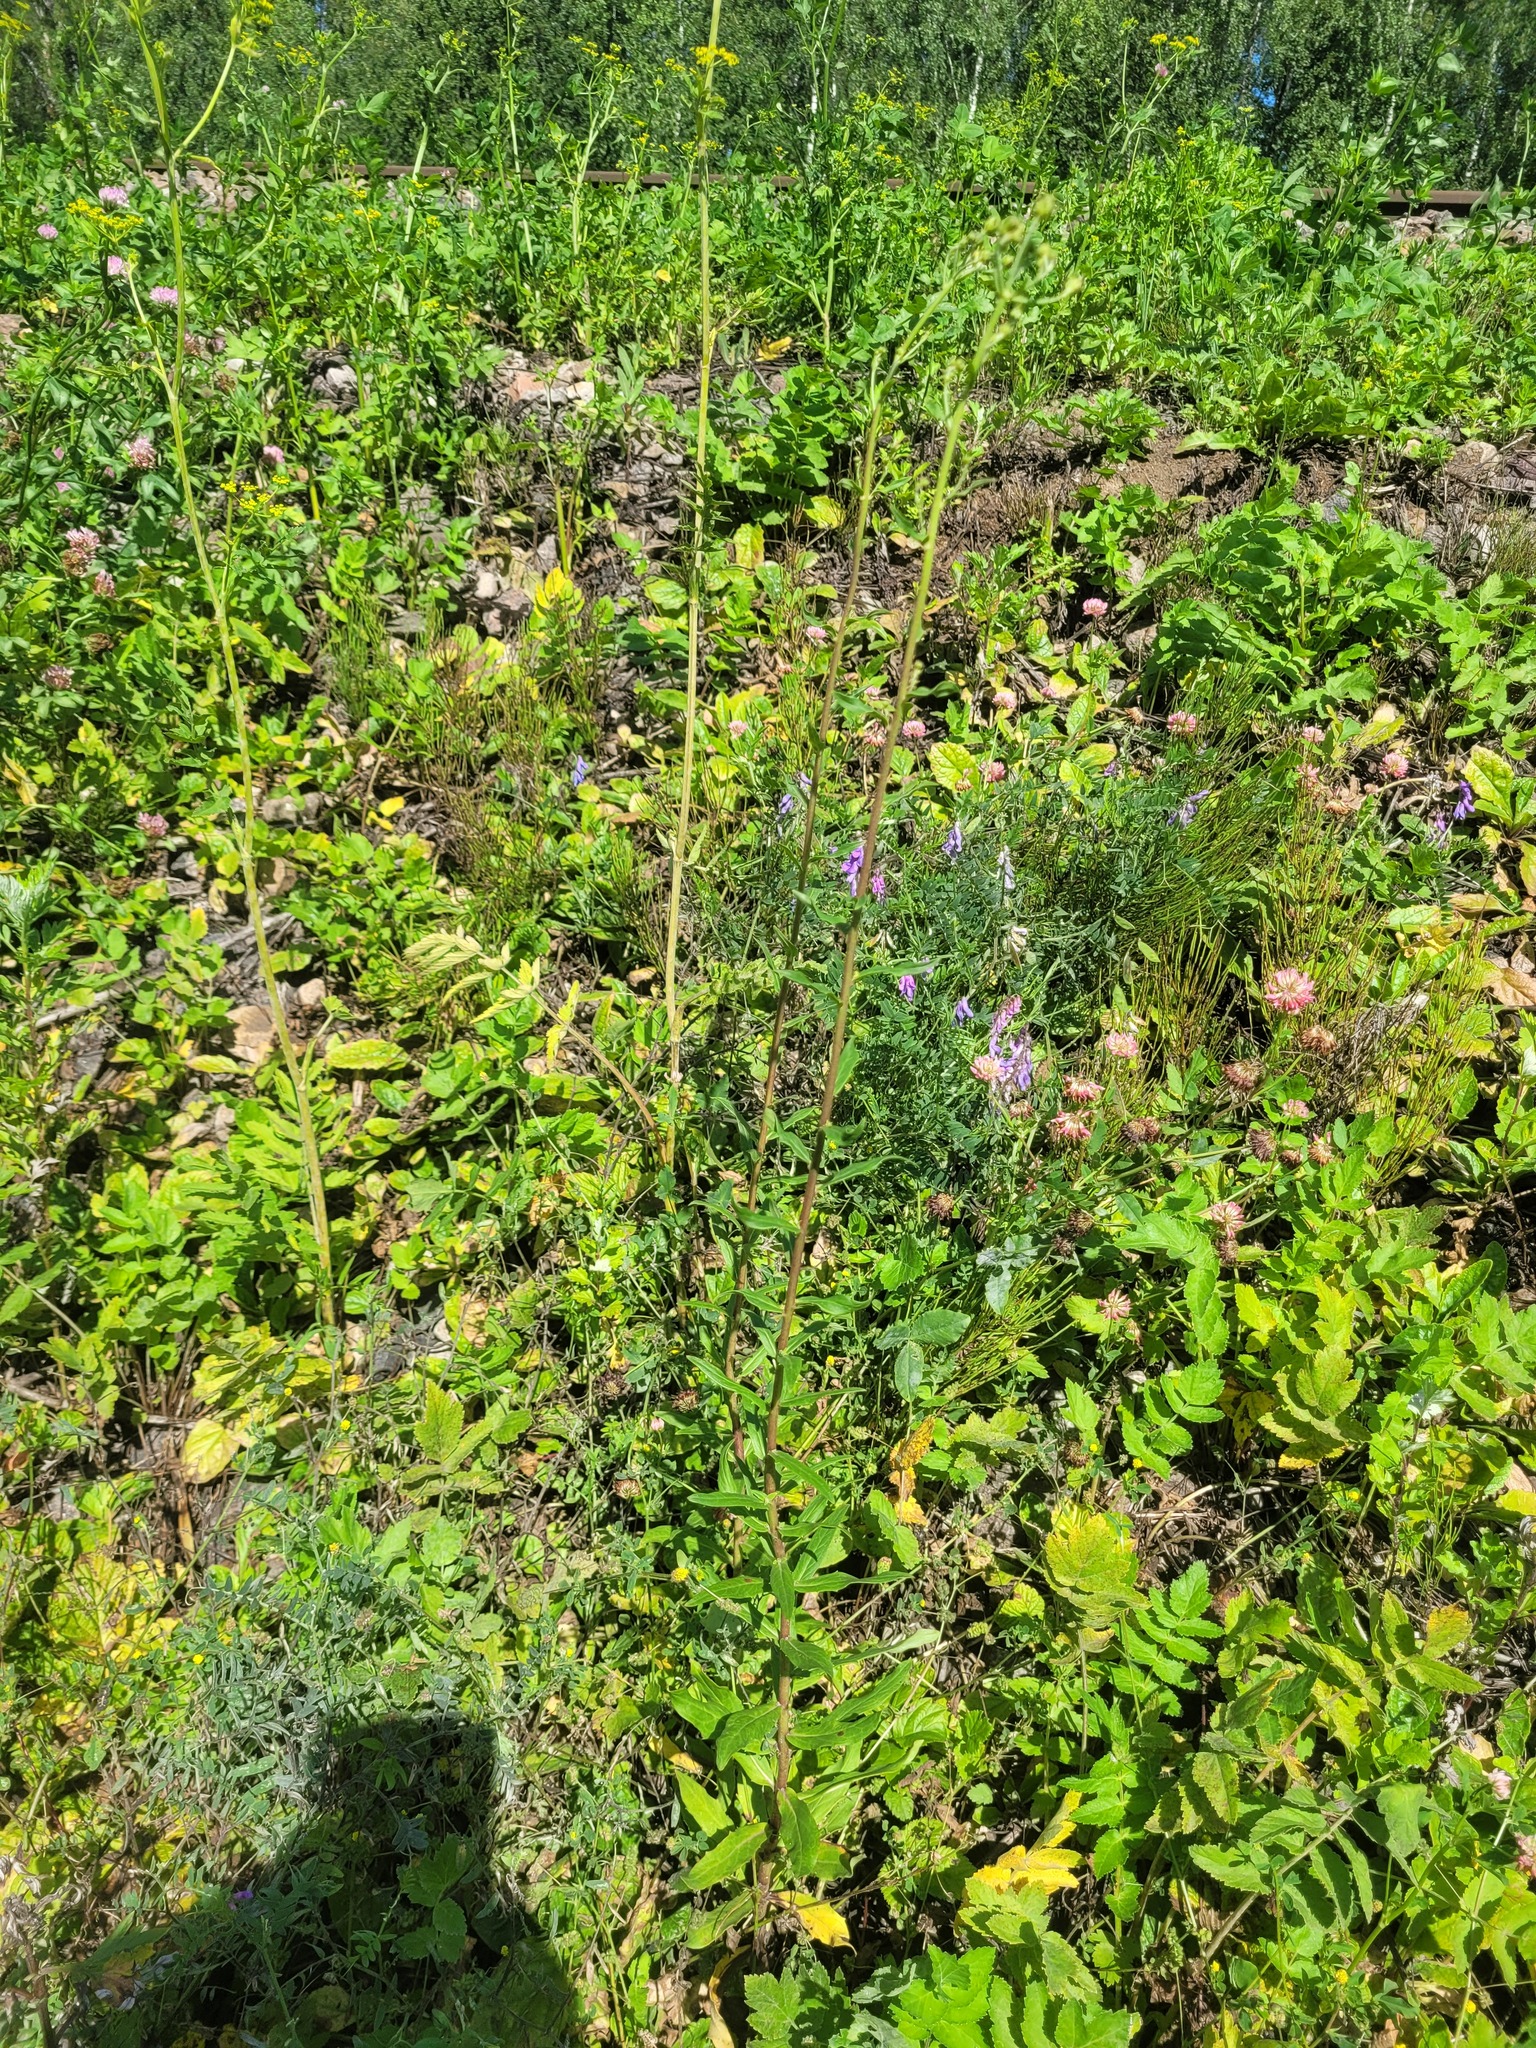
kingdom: Plantae
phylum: Tracheophyta
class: Magnoliopsida
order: Asterales
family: Asteraceae
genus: Hieracium
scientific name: Hieracium umbellatum
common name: Northern hawkweed
